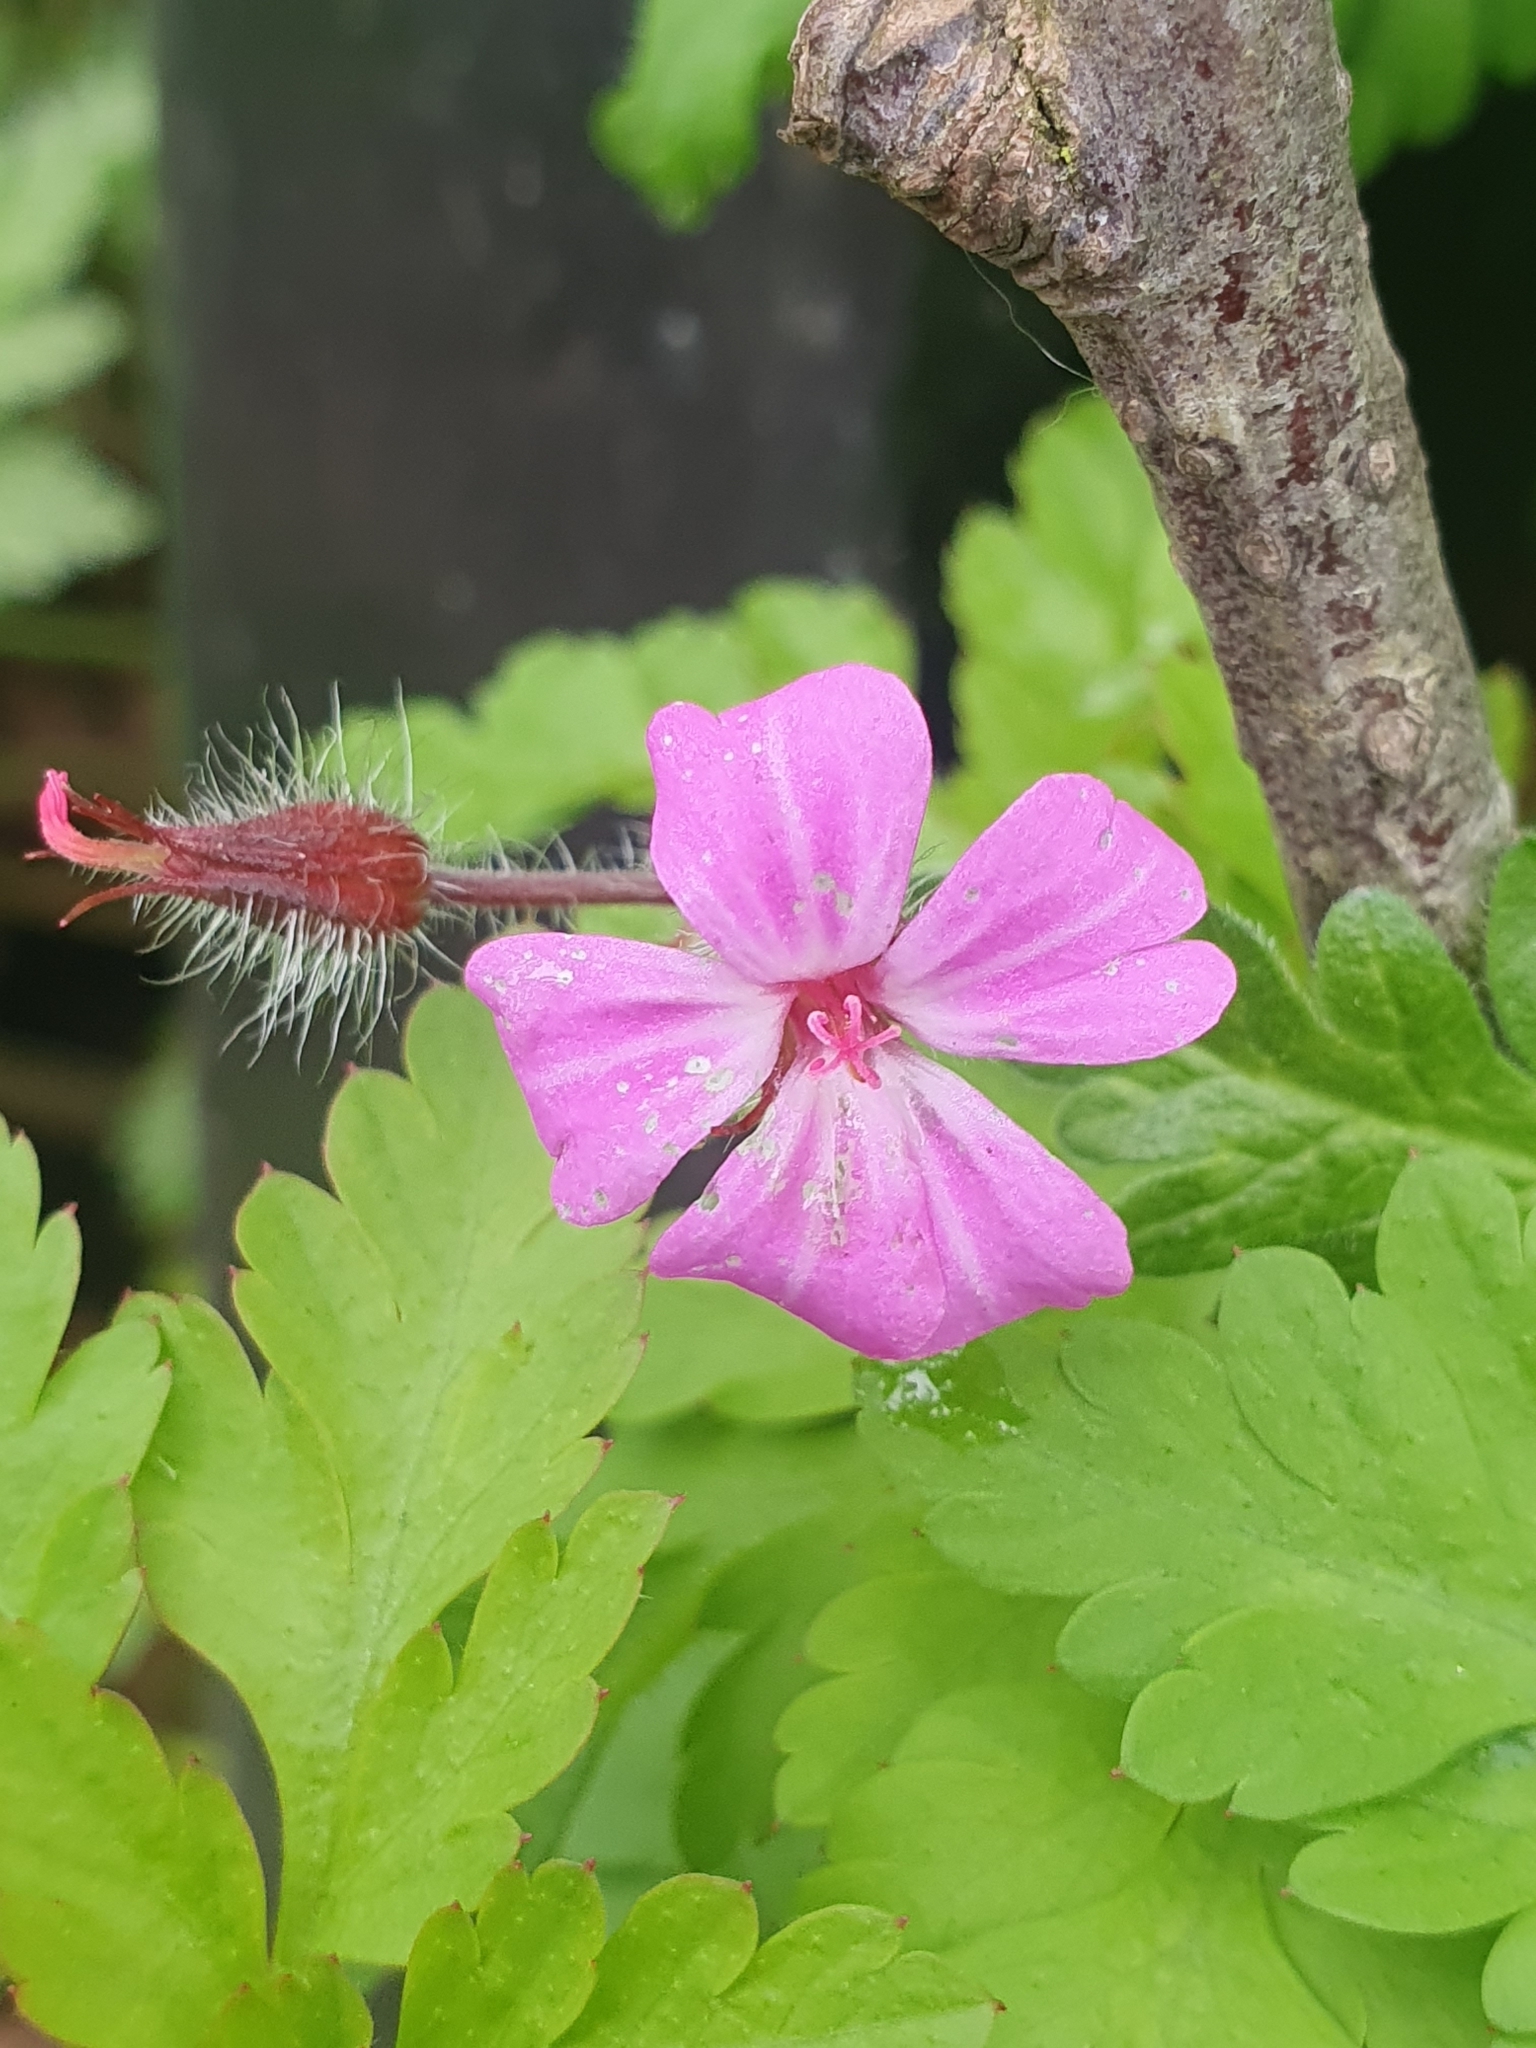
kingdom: Plantae
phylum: Tracheophyta
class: Magnoliopsida
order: Geraniales
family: Geraniaceae
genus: Geranium
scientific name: Geranium robertianum
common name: Herb-robert
